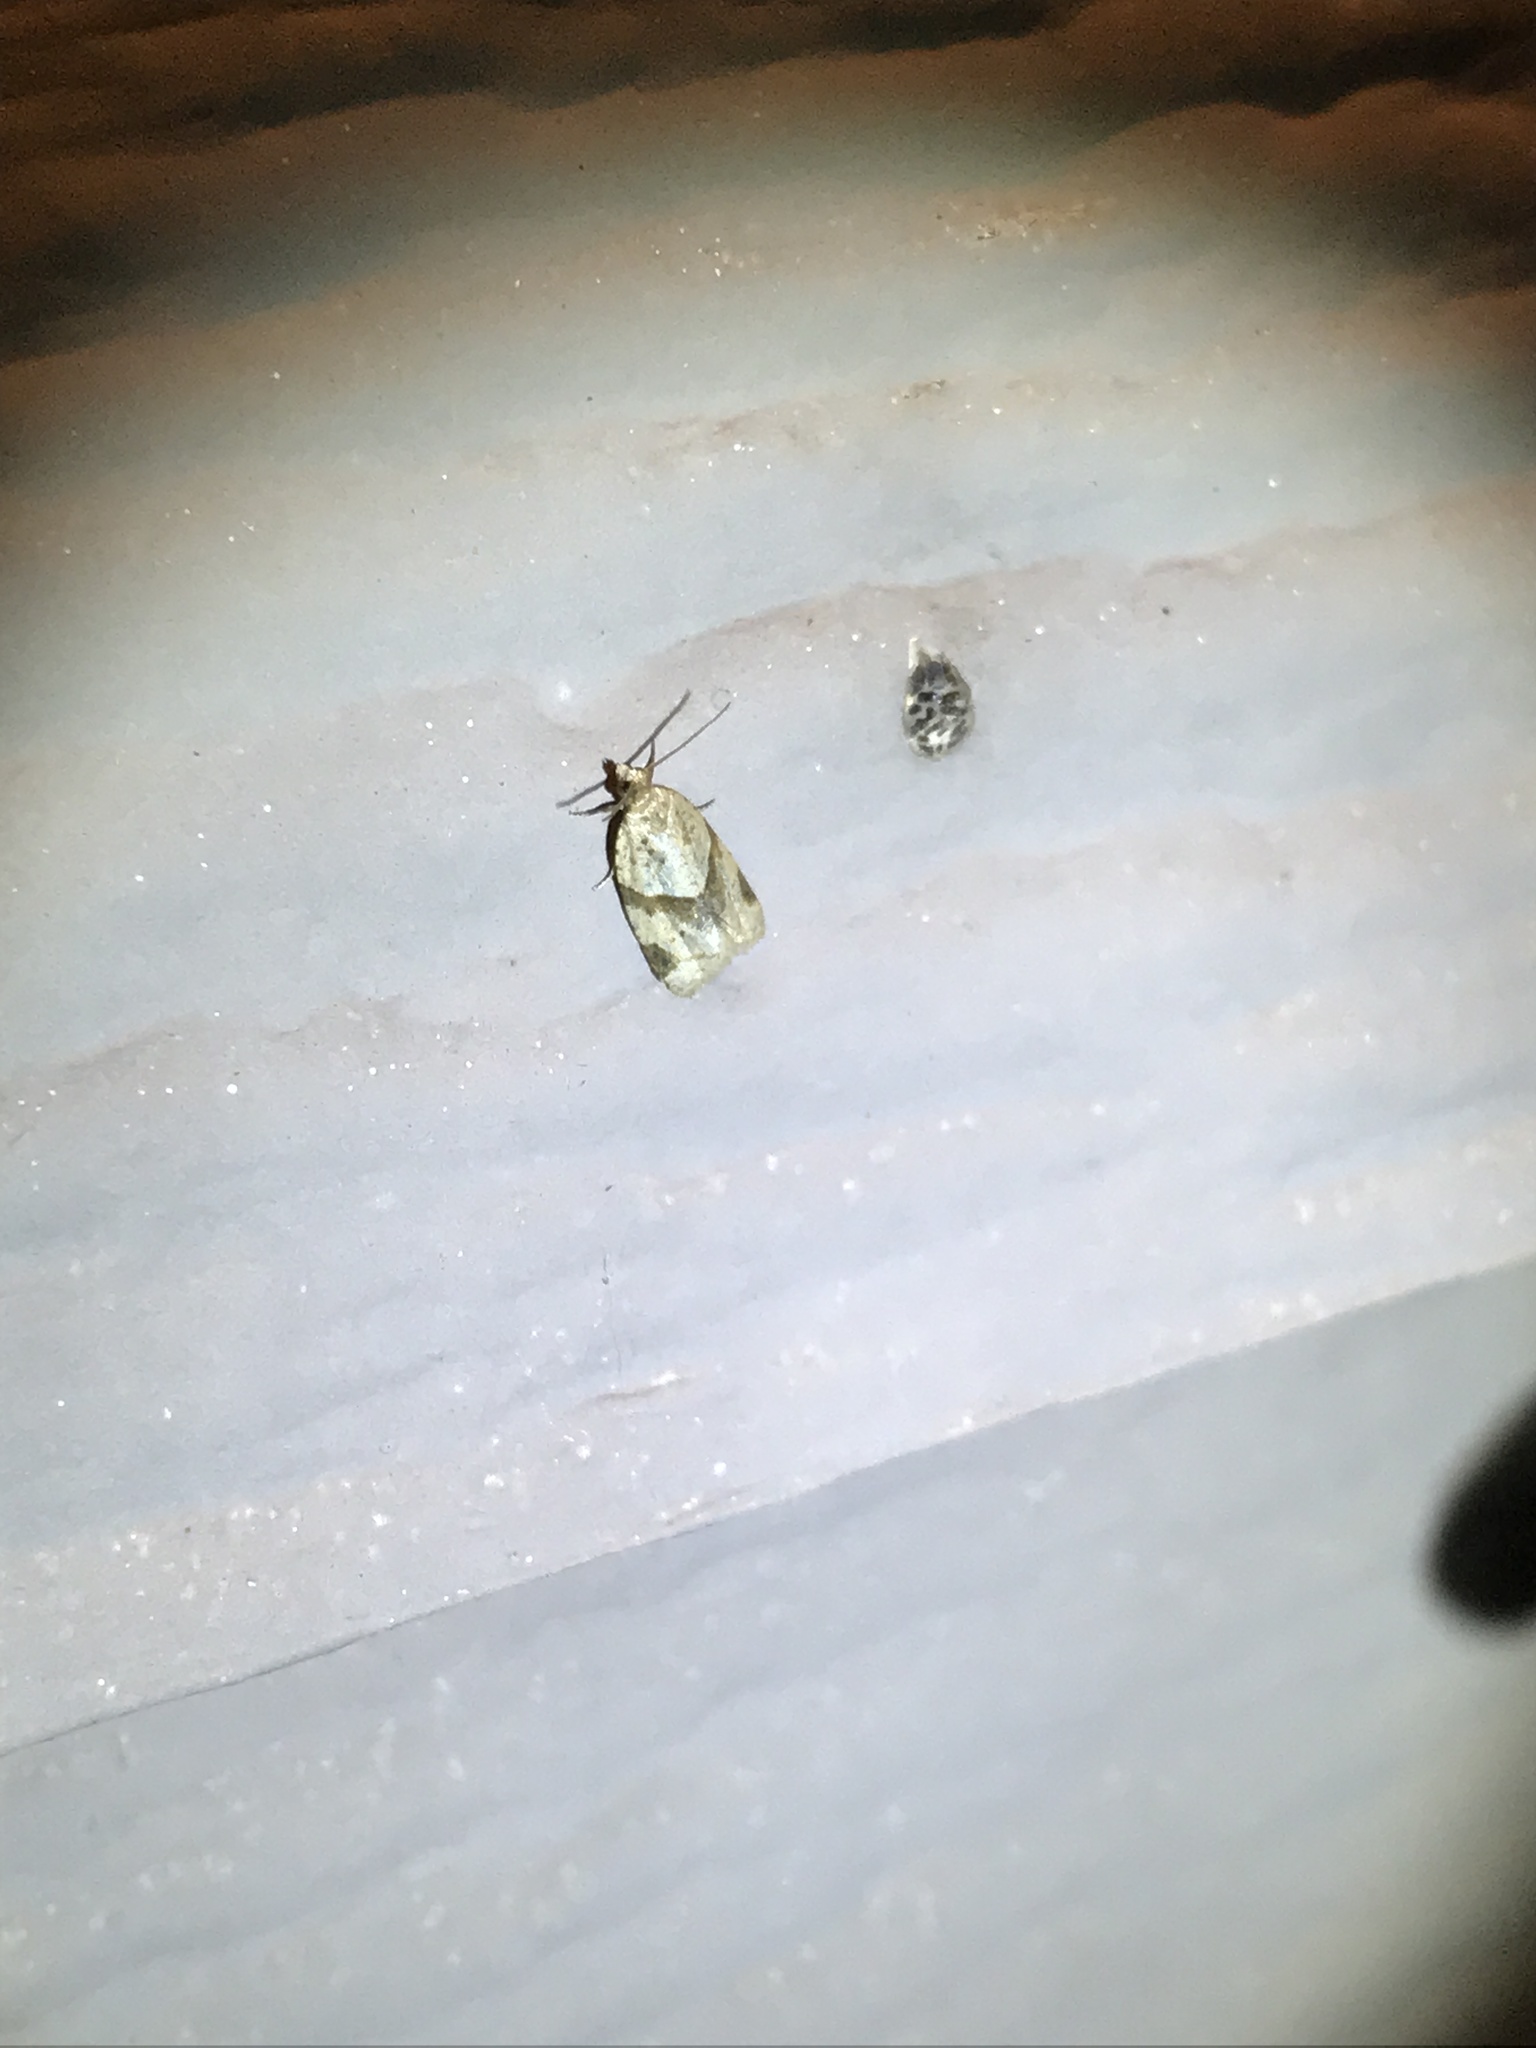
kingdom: Animalia
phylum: Arthropoda
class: Insecta
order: Lepidoptera
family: Tortricidae
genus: Clepsis
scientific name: Clepsis peritana
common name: Garden tortrix
